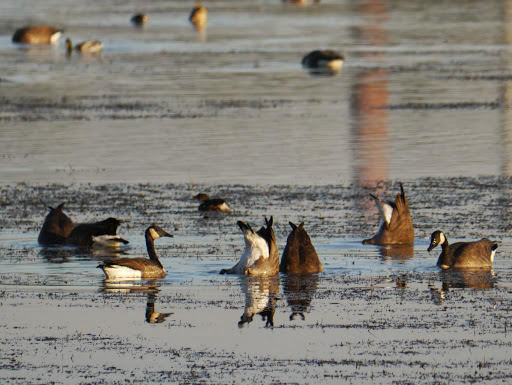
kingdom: Animalia
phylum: Chordata
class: Aves
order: Anseriformes
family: Anatidae
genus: Branta
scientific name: Branta canadensis
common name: Canada goose
